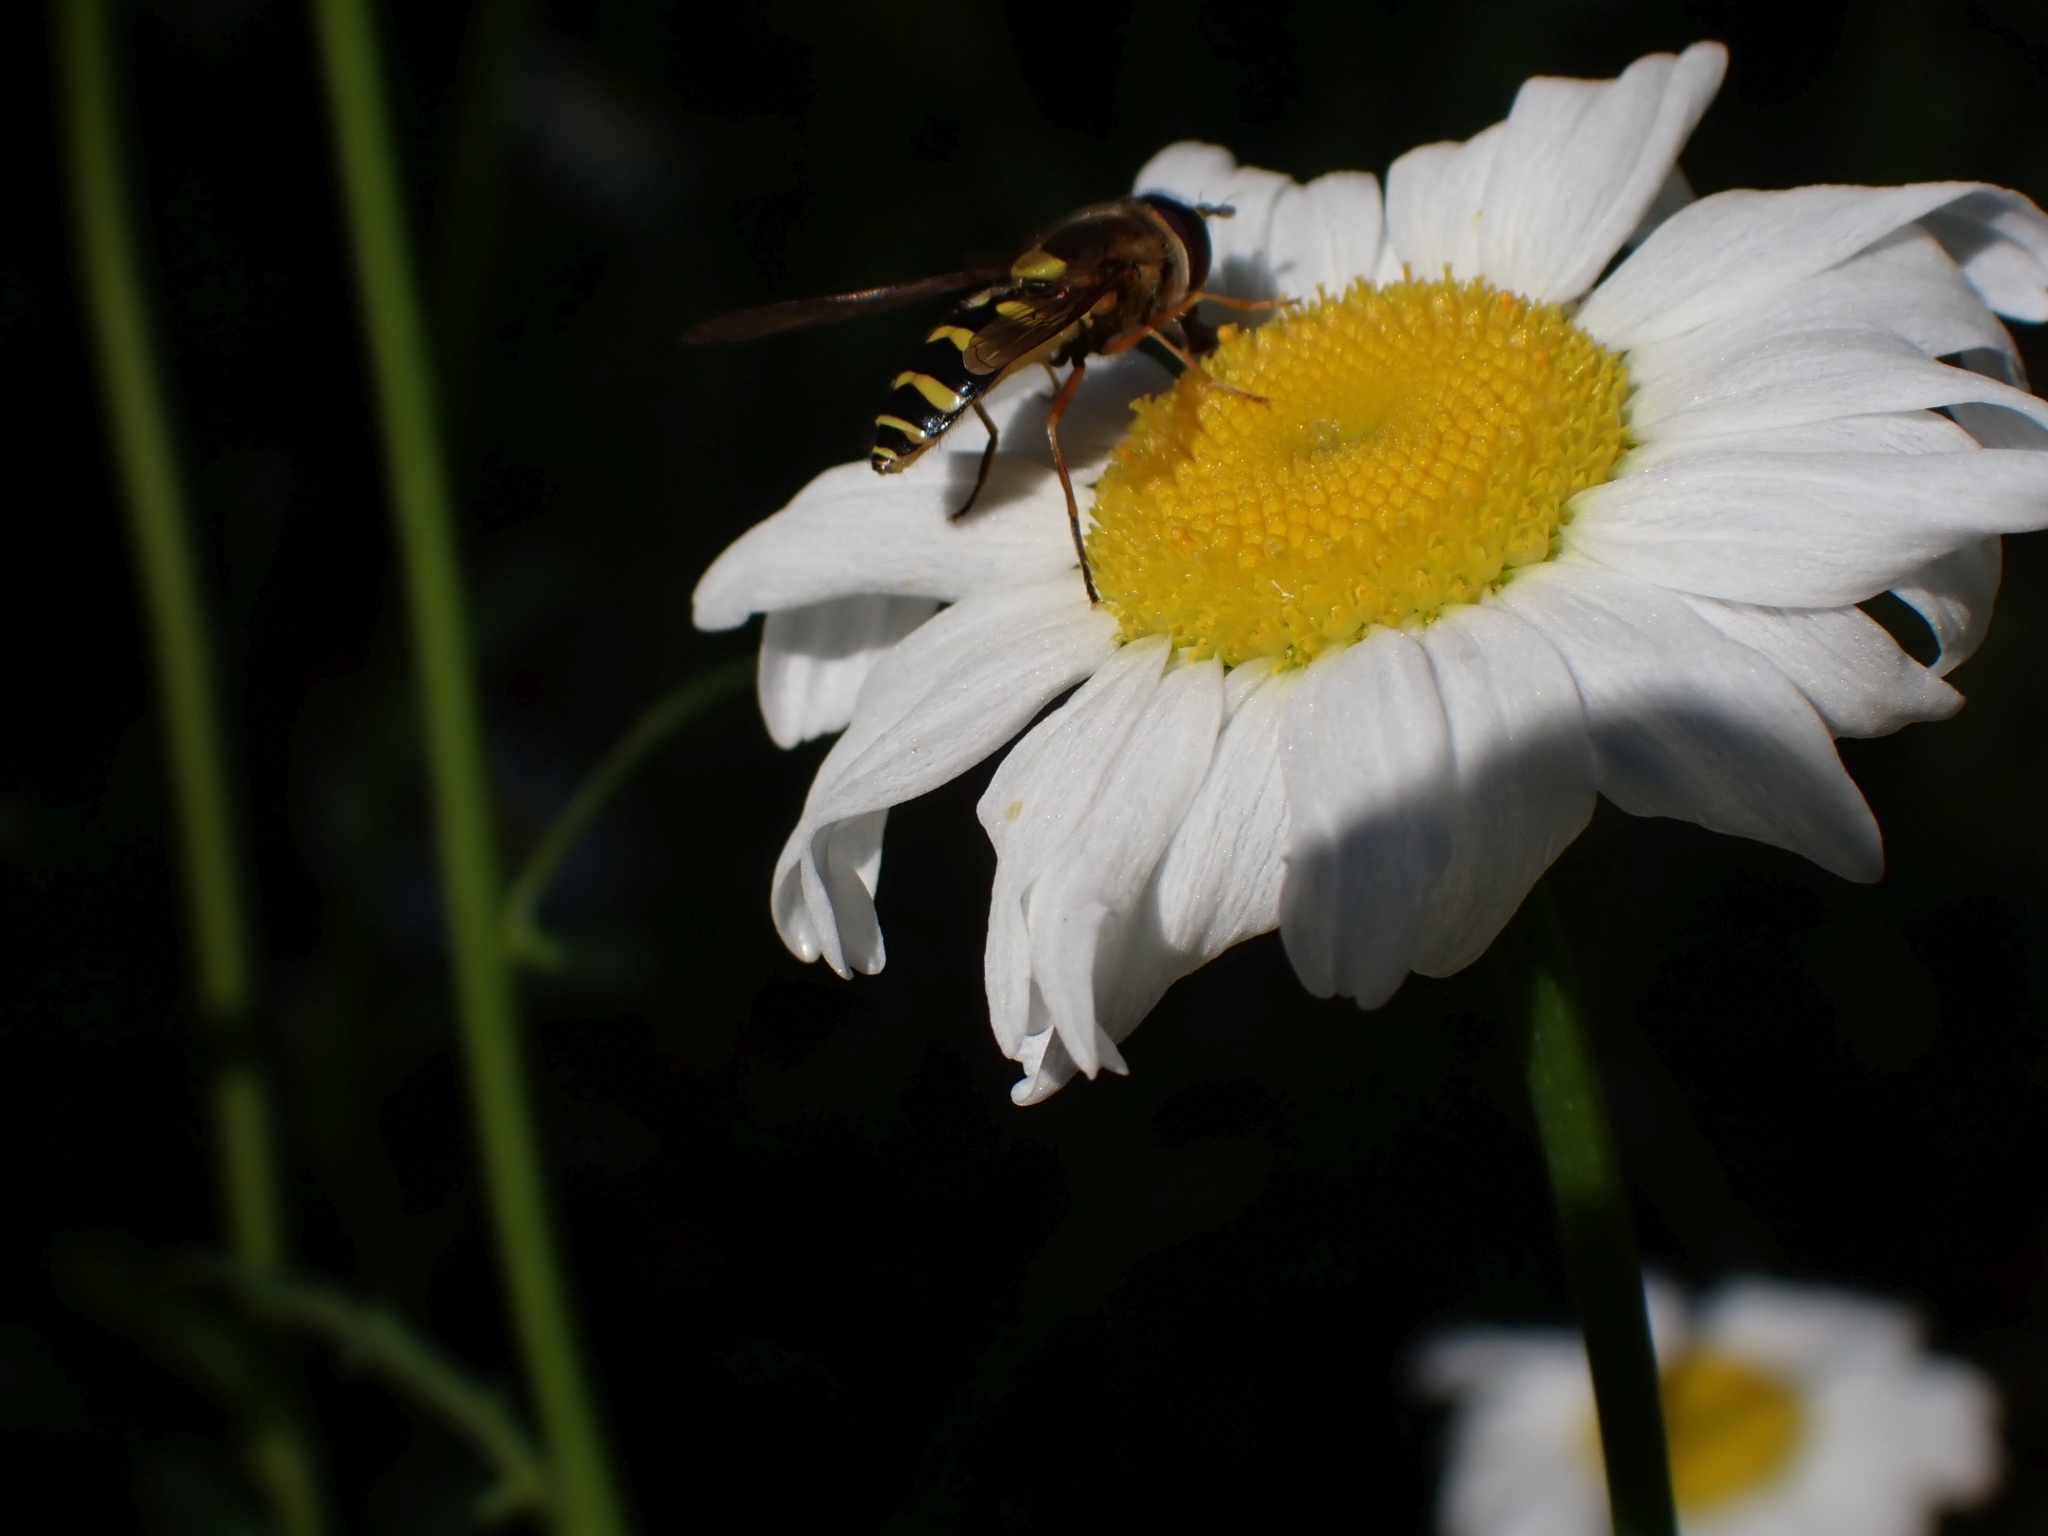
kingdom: Animalia
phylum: Arthropoda
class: Insecta
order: Diptera
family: Syrphidae
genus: Syrphus
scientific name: Syrphus opinator
